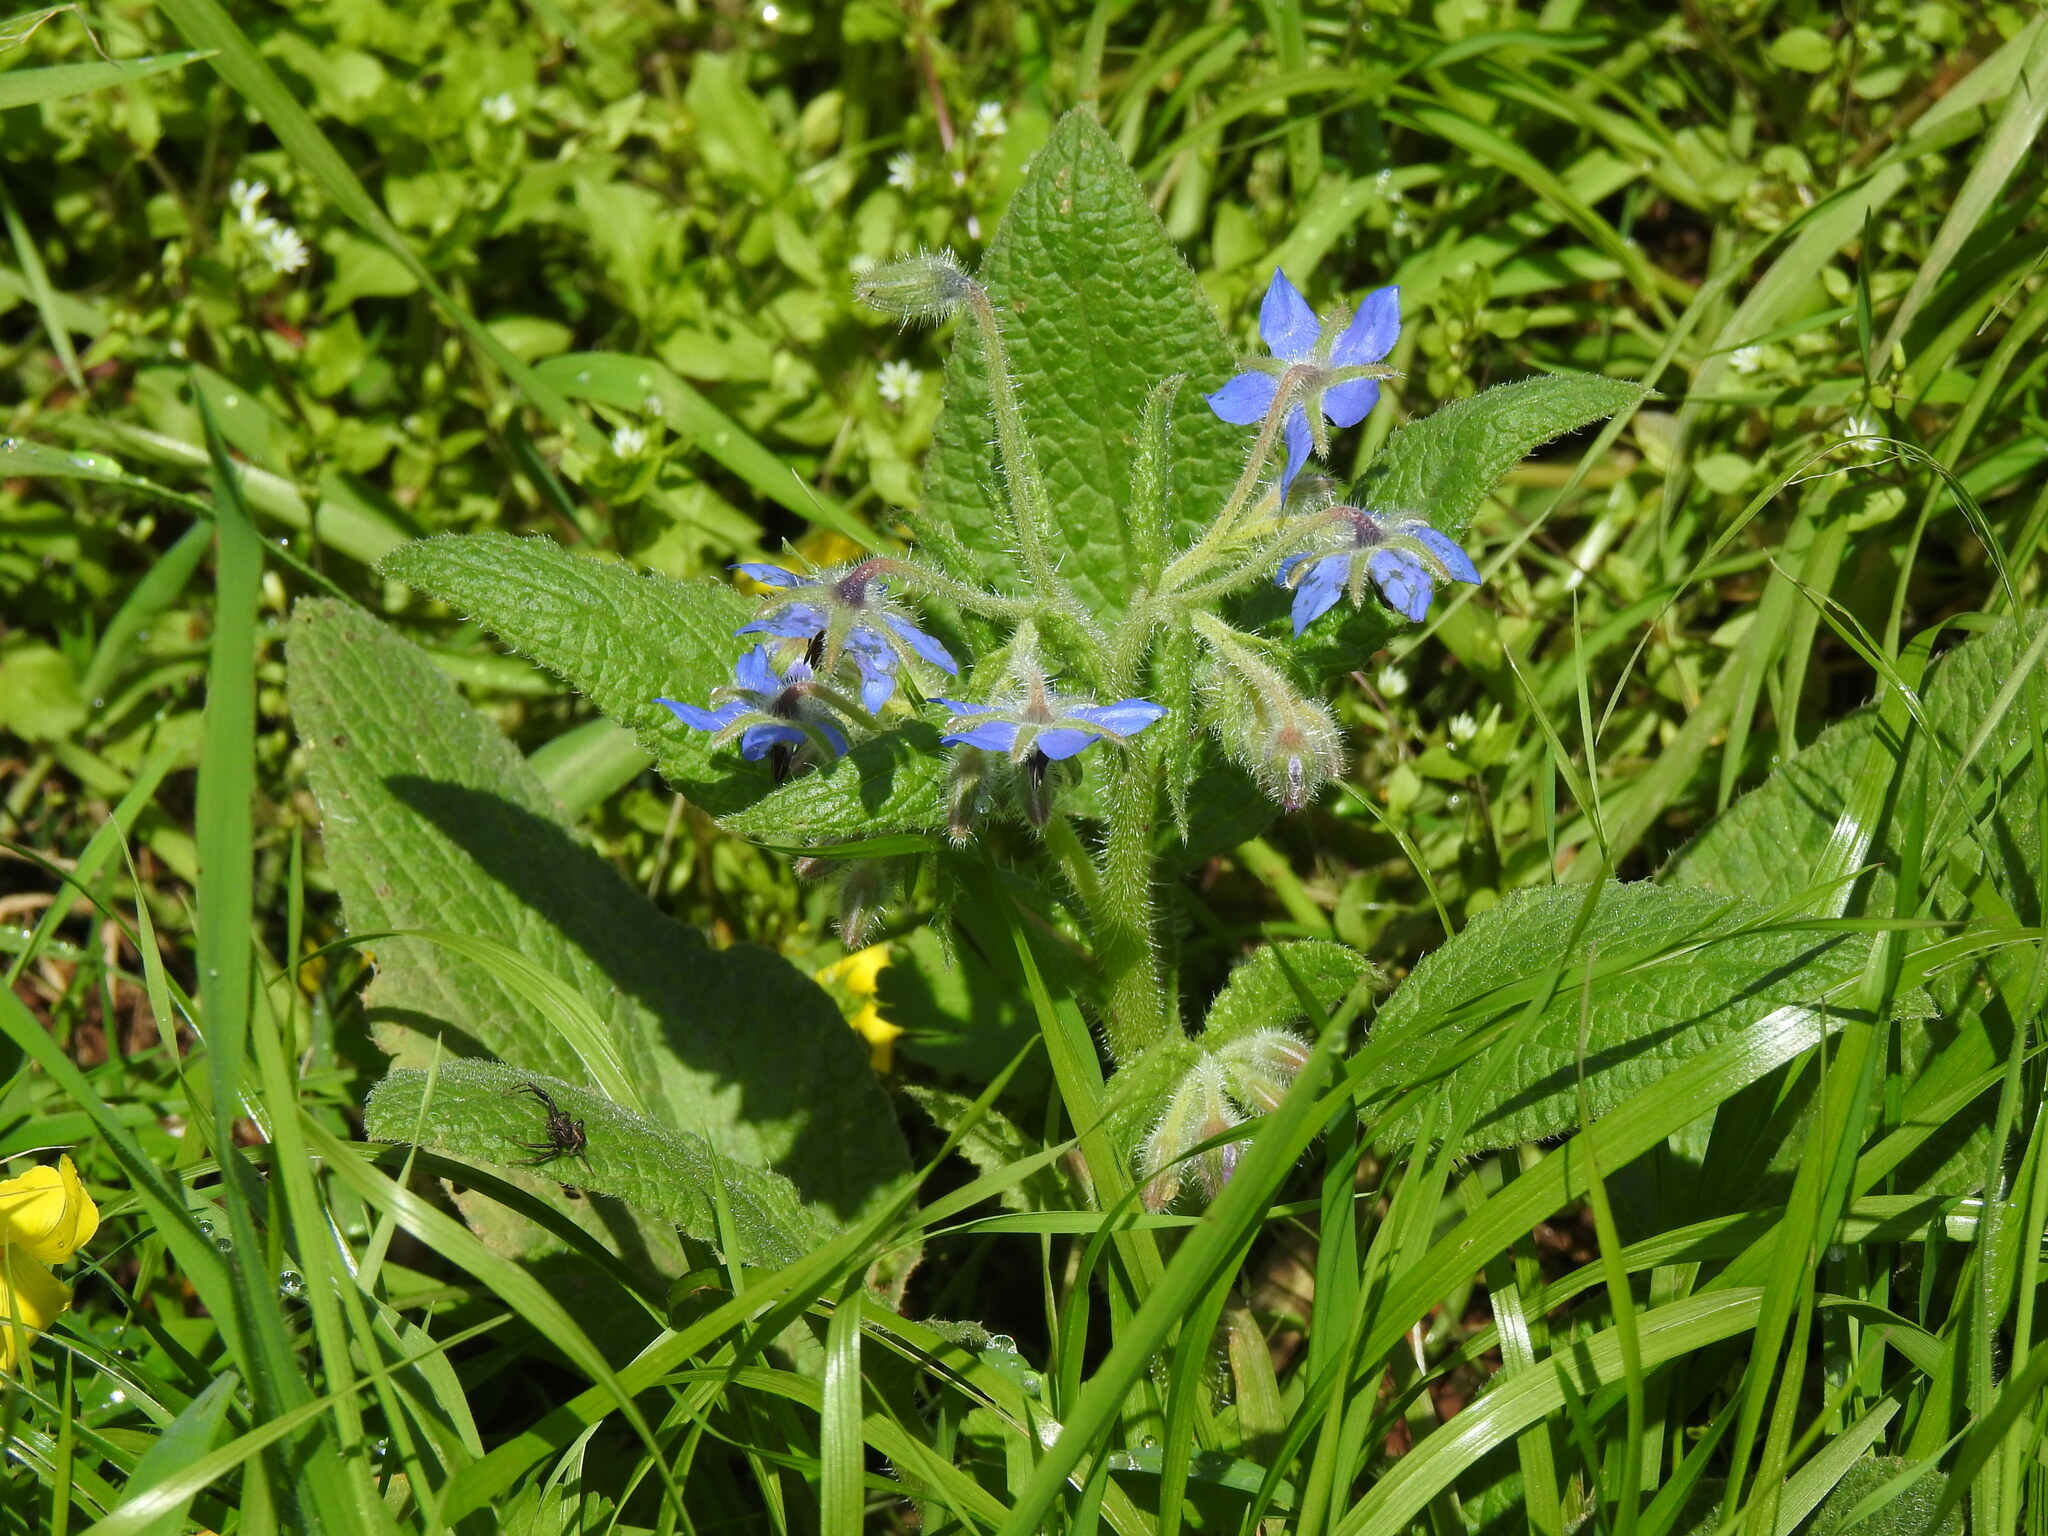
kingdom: Plantae
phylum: Tracheophyta
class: Magnoliopsida
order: Boraginales
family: Boraginaceae
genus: Borago
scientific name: Borago officinalis
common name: Borage
